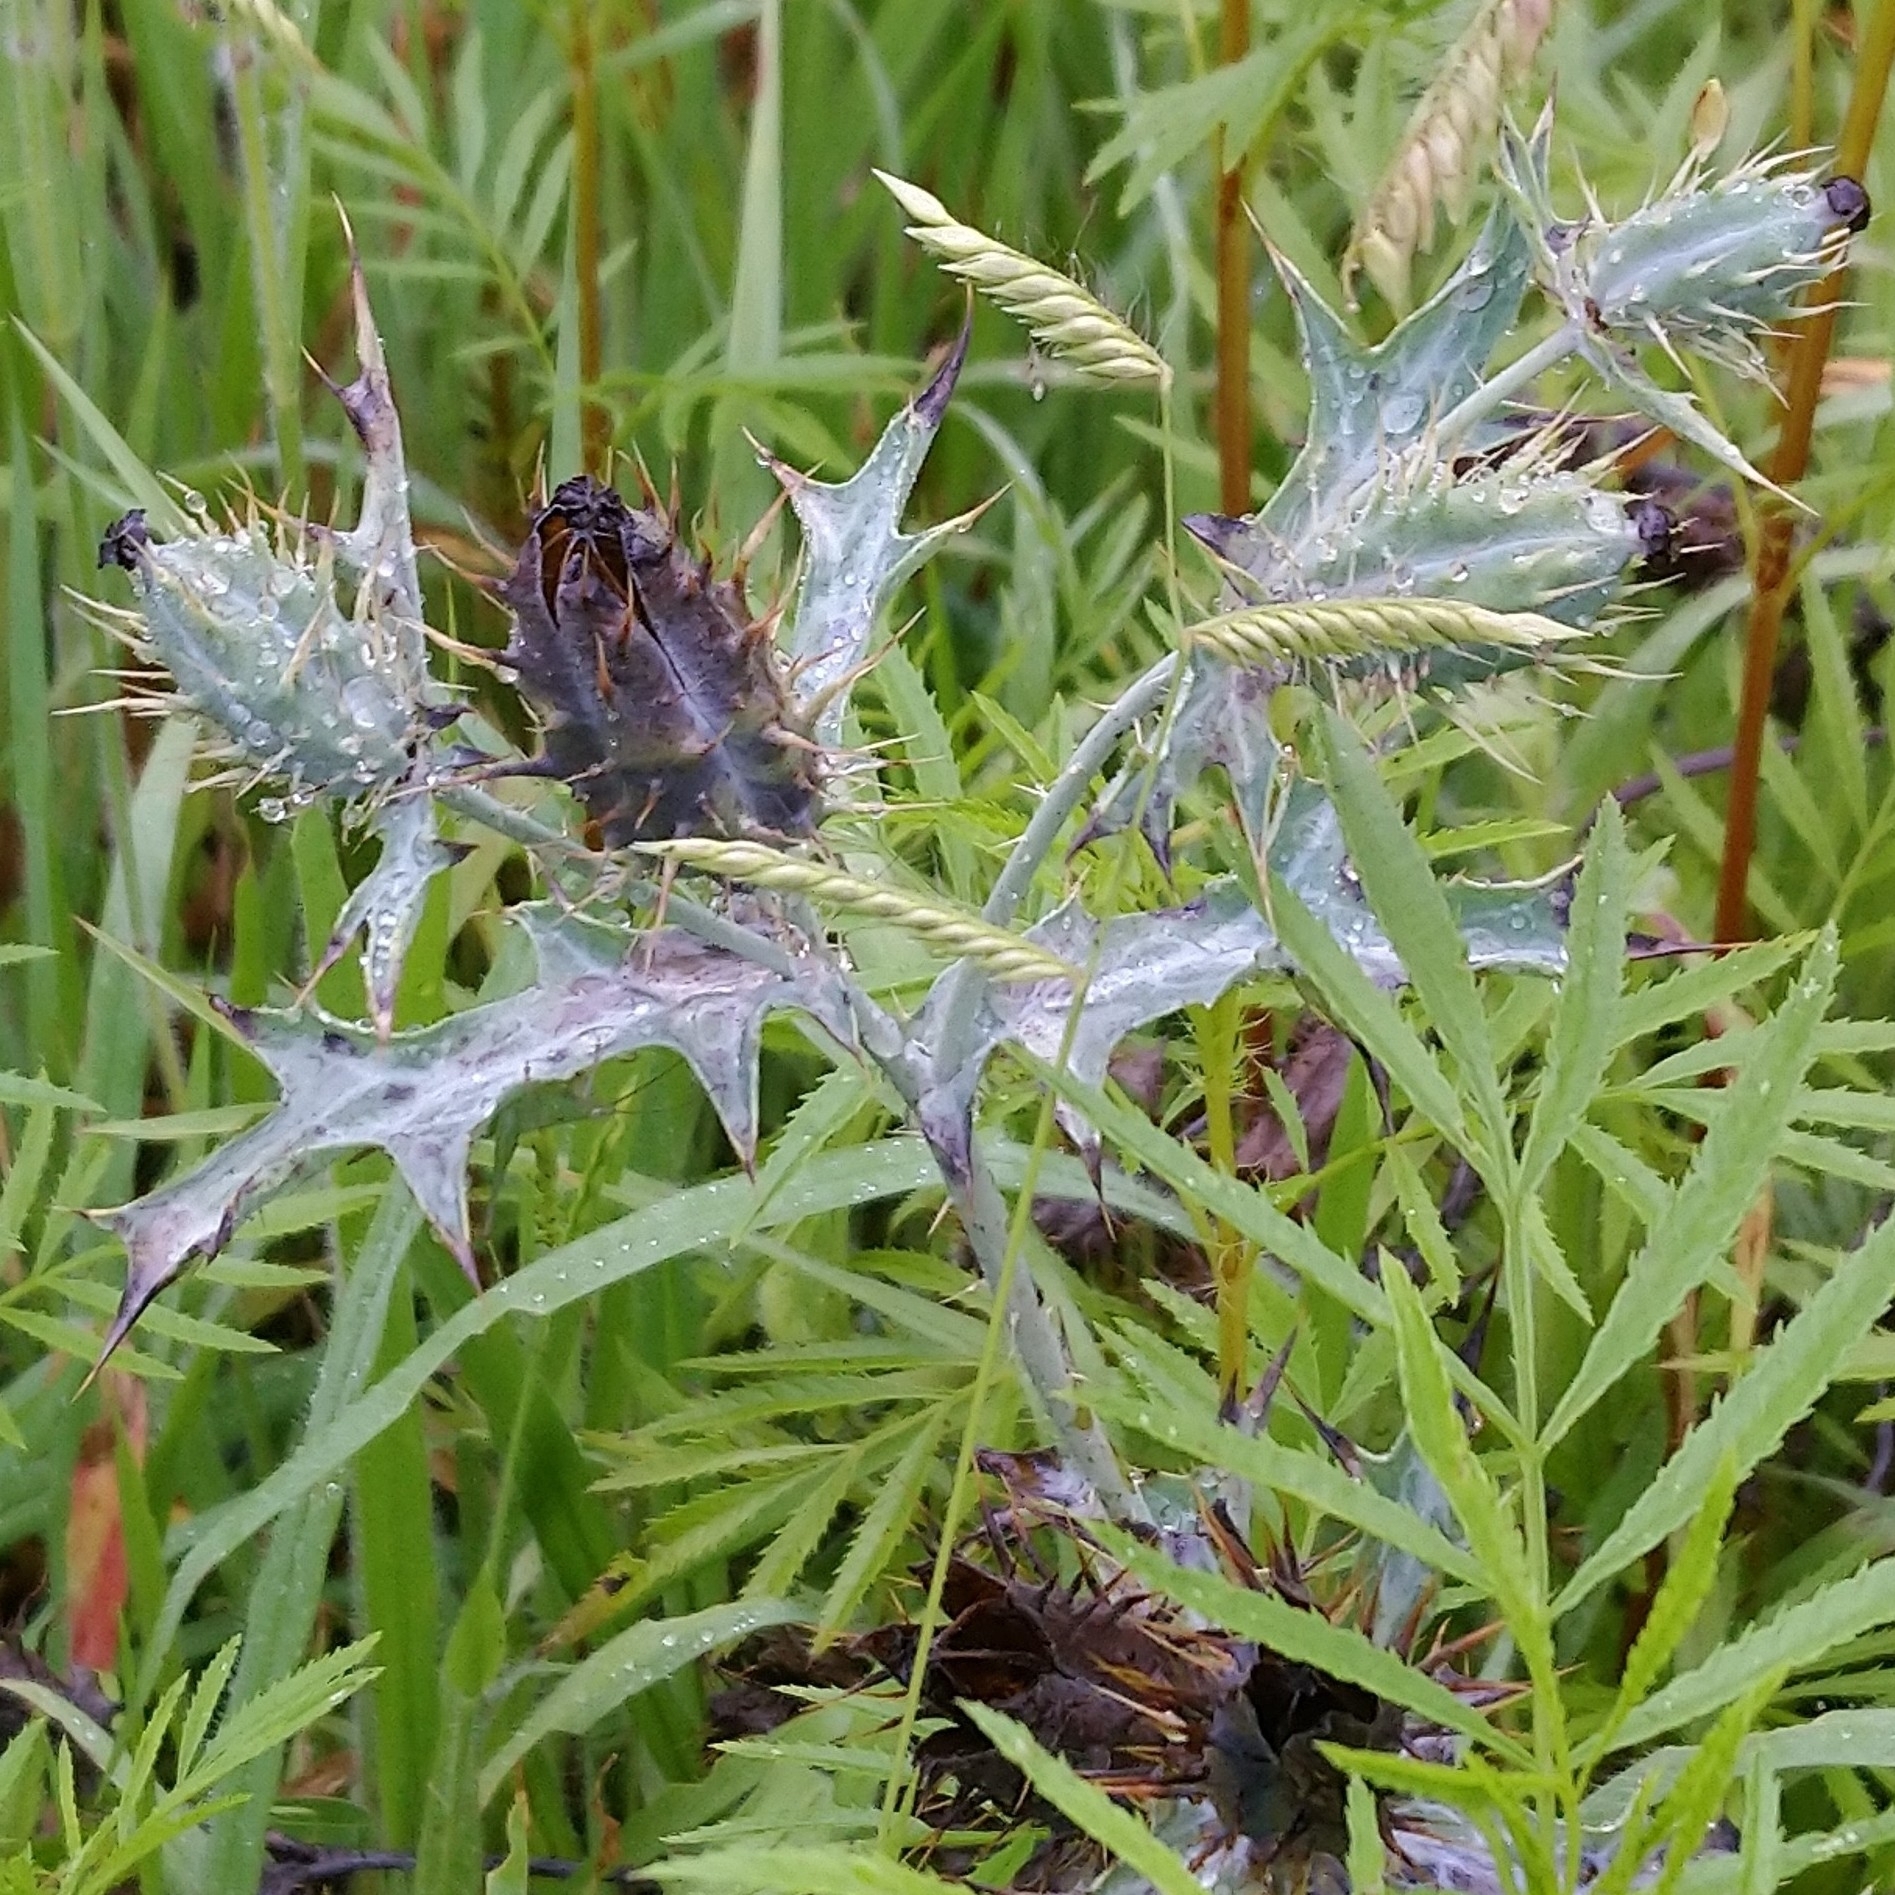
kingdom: Plantae
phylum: Tracheophyta
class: Magnoliopsida
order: Ranunculales
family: Papaveraceae
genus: Argemone
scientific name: Argemone ochroleuca
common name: White-flower mexican-poppy
